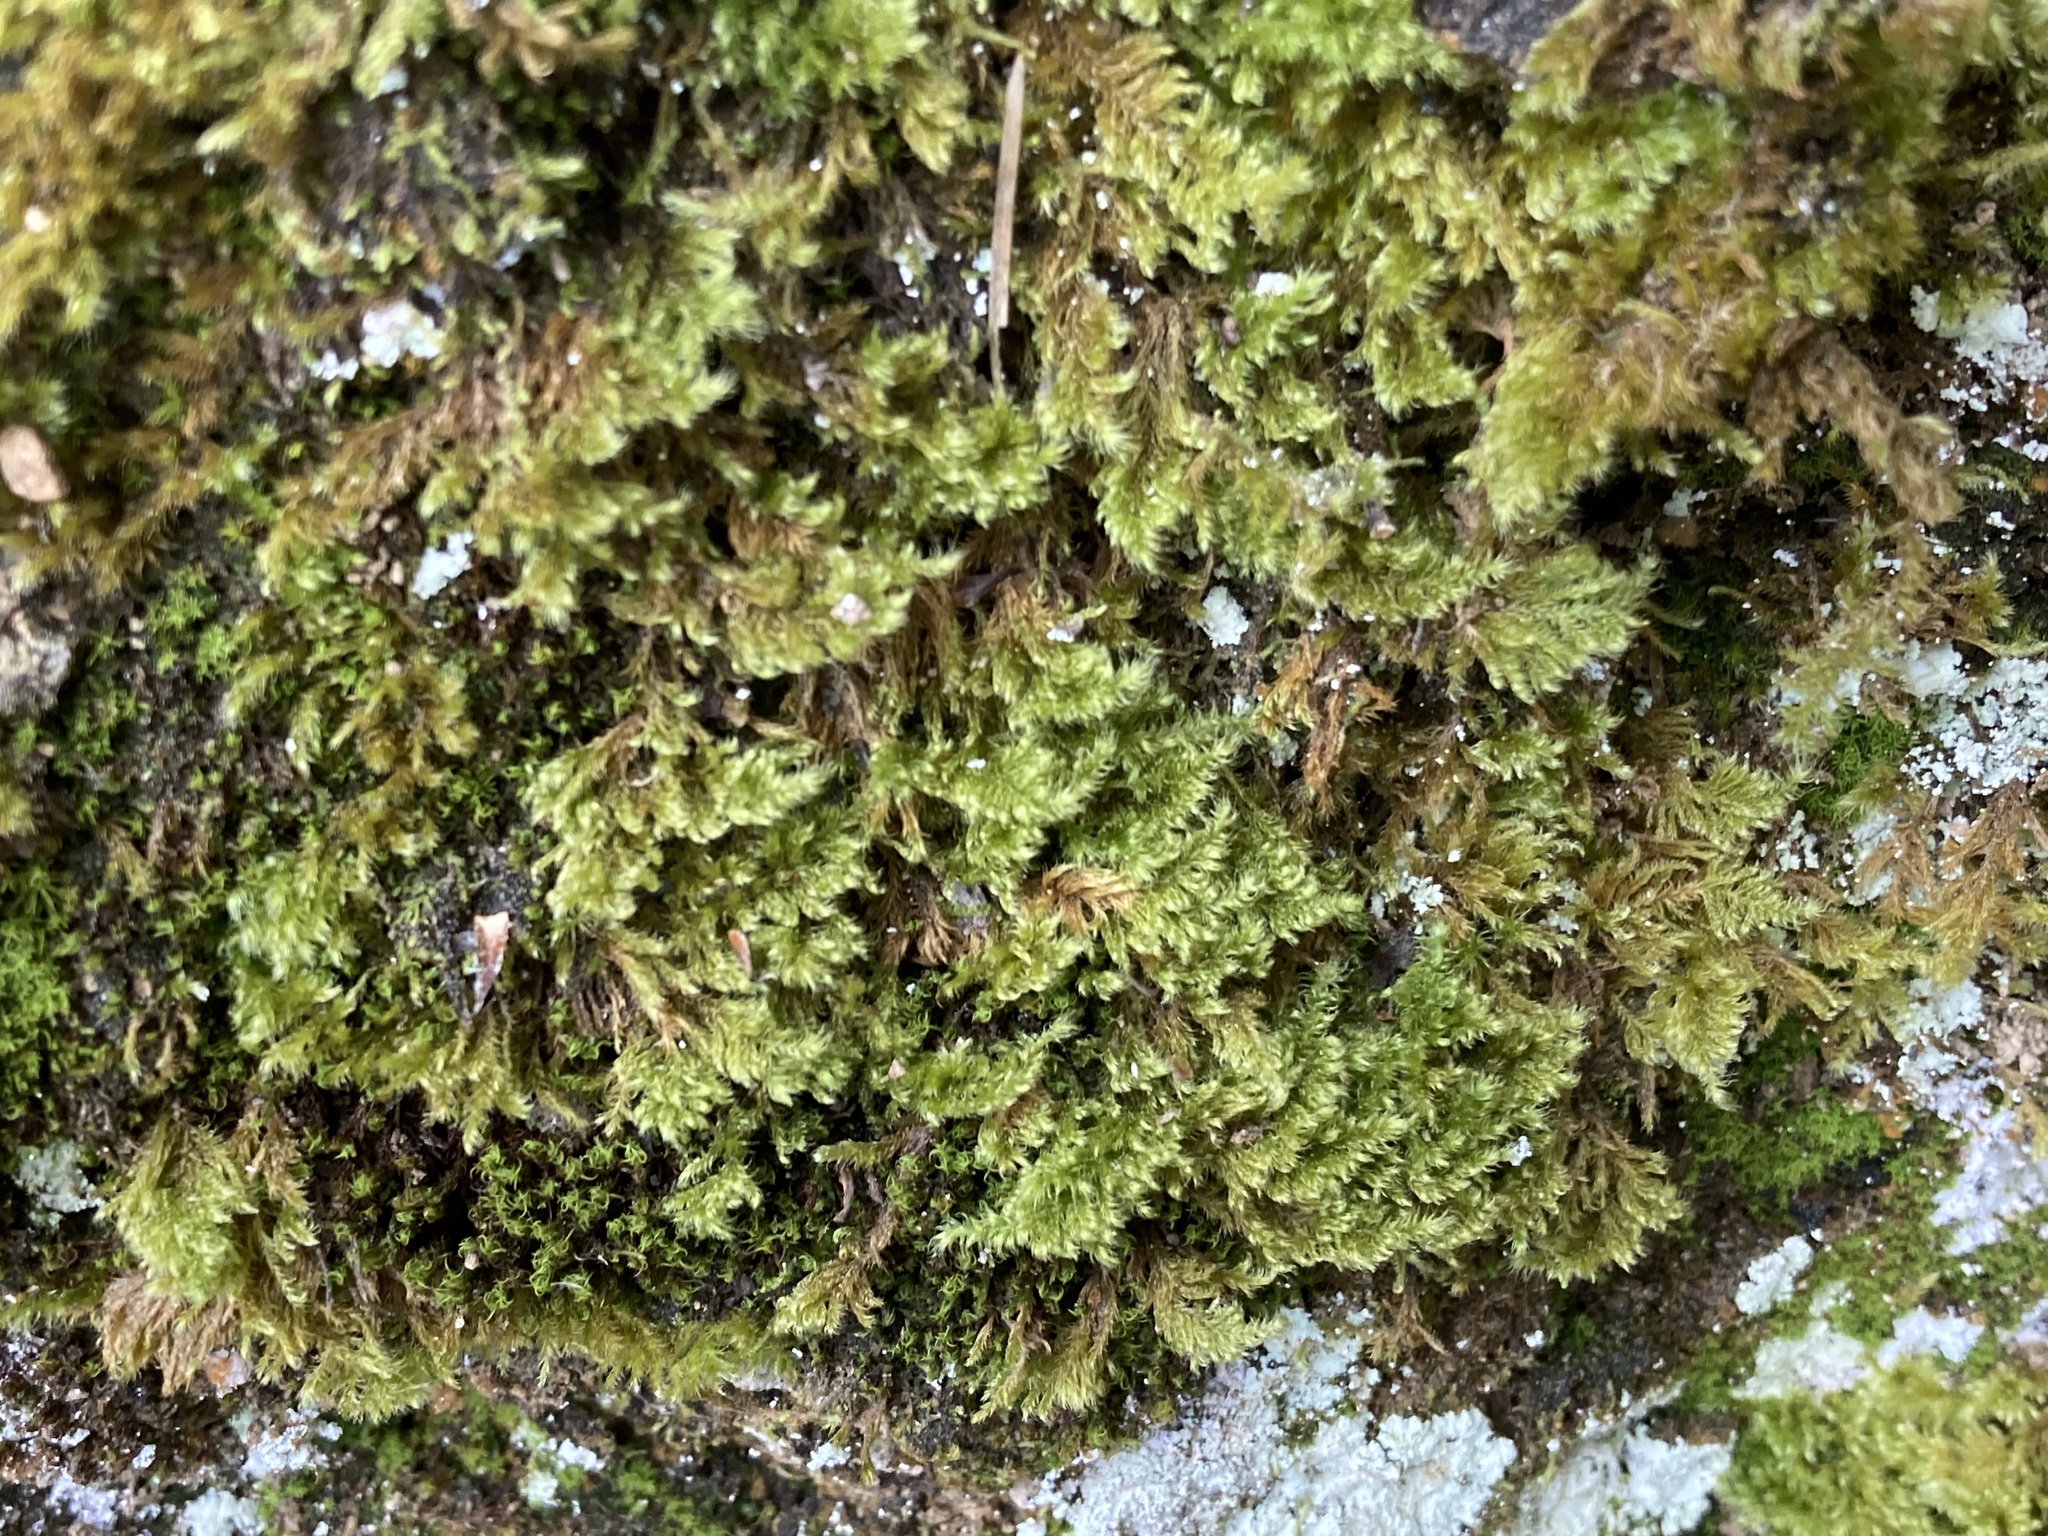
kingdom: Plantae
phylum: Bryophyta
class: Bryopsida
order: Hypnales
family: Myuriaceae
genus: Ctenidium
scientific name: Ctenidium molluscum
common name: Chalk comb-moss
